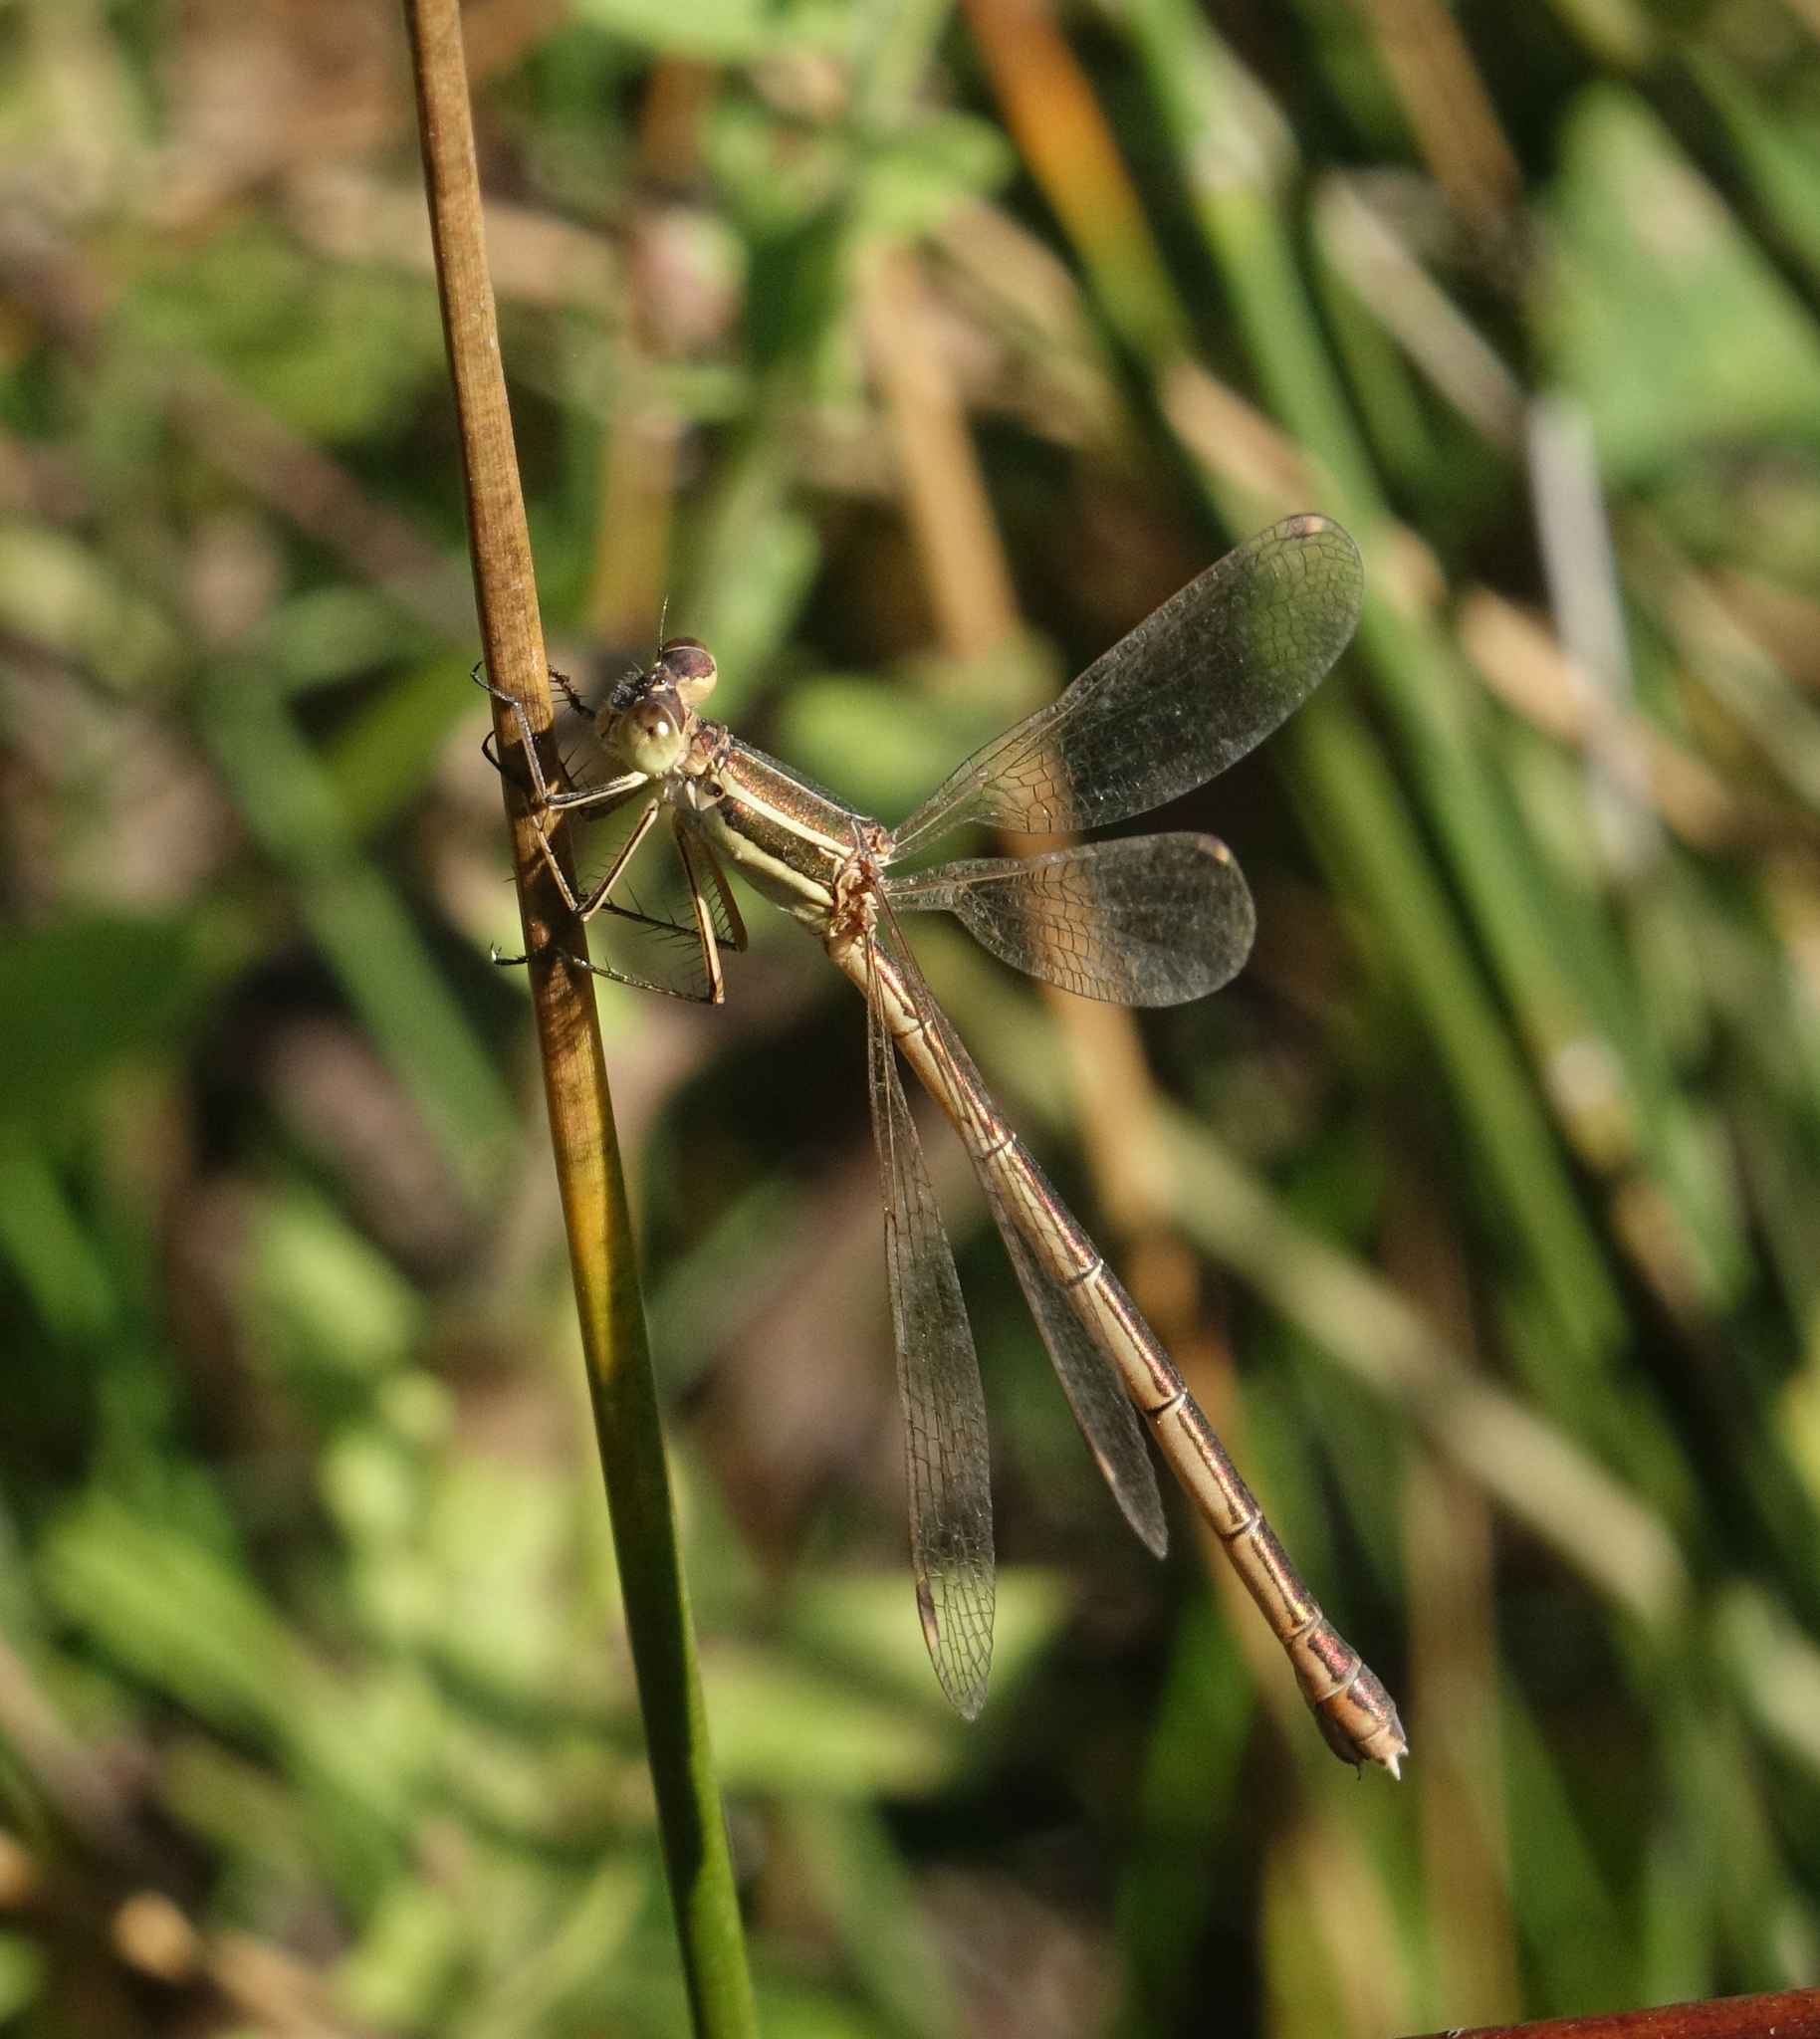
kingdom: Animalia
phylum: Arthropoda
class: Insecta
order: Odonata
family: Lestidae
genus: Lestes
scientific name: Lestes barbarus
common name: Migrant spreadwing
